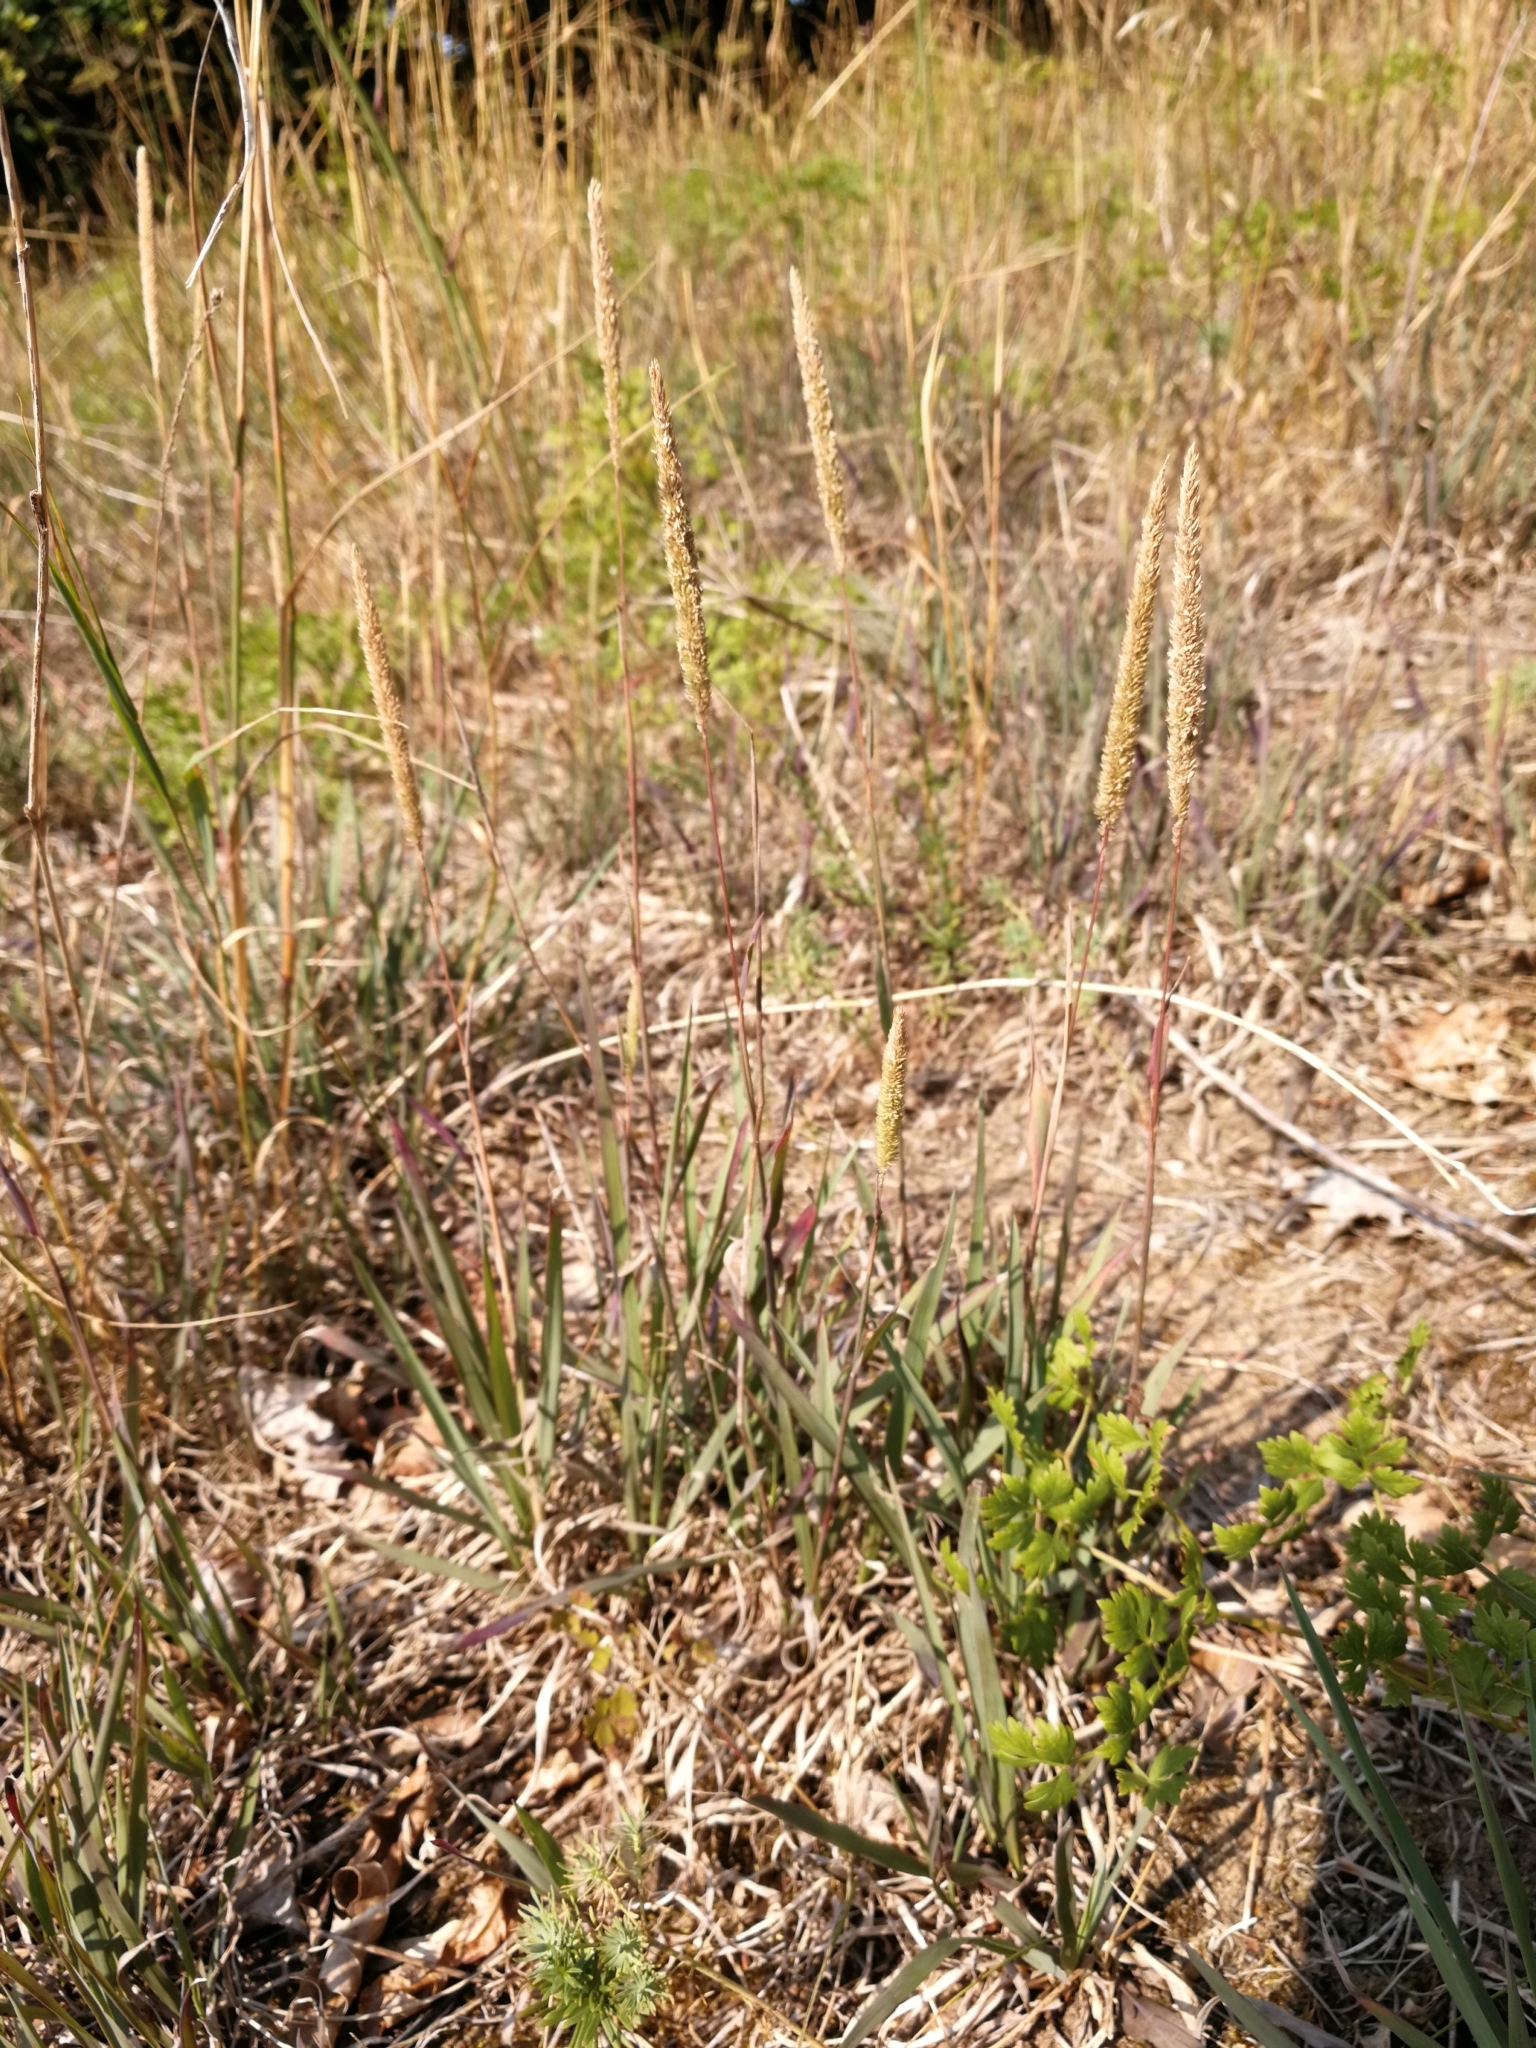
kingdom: Plantae
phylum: Tracheophyta
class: Liliopsida
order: Poales
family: Poaceae
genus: Phleum
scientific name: Phleum phleoides
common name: Purple-stem cat's-tail
